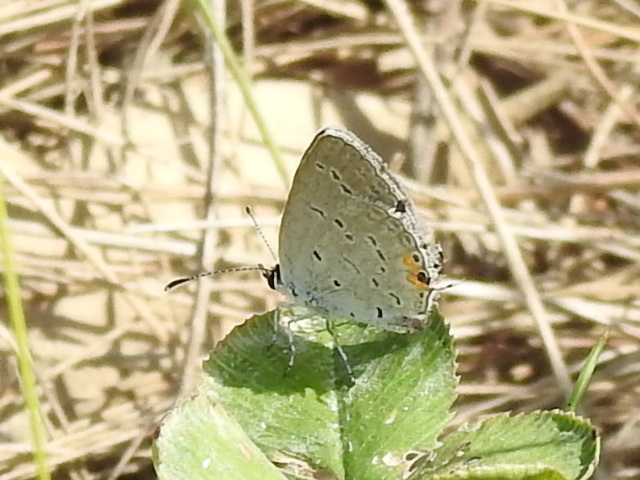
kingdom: Animalia
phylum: Arthropoda
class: Insecta
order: Lepidoptera
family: Lycaenidae
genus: Elkalyce
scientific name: Elkalyce comyntas
